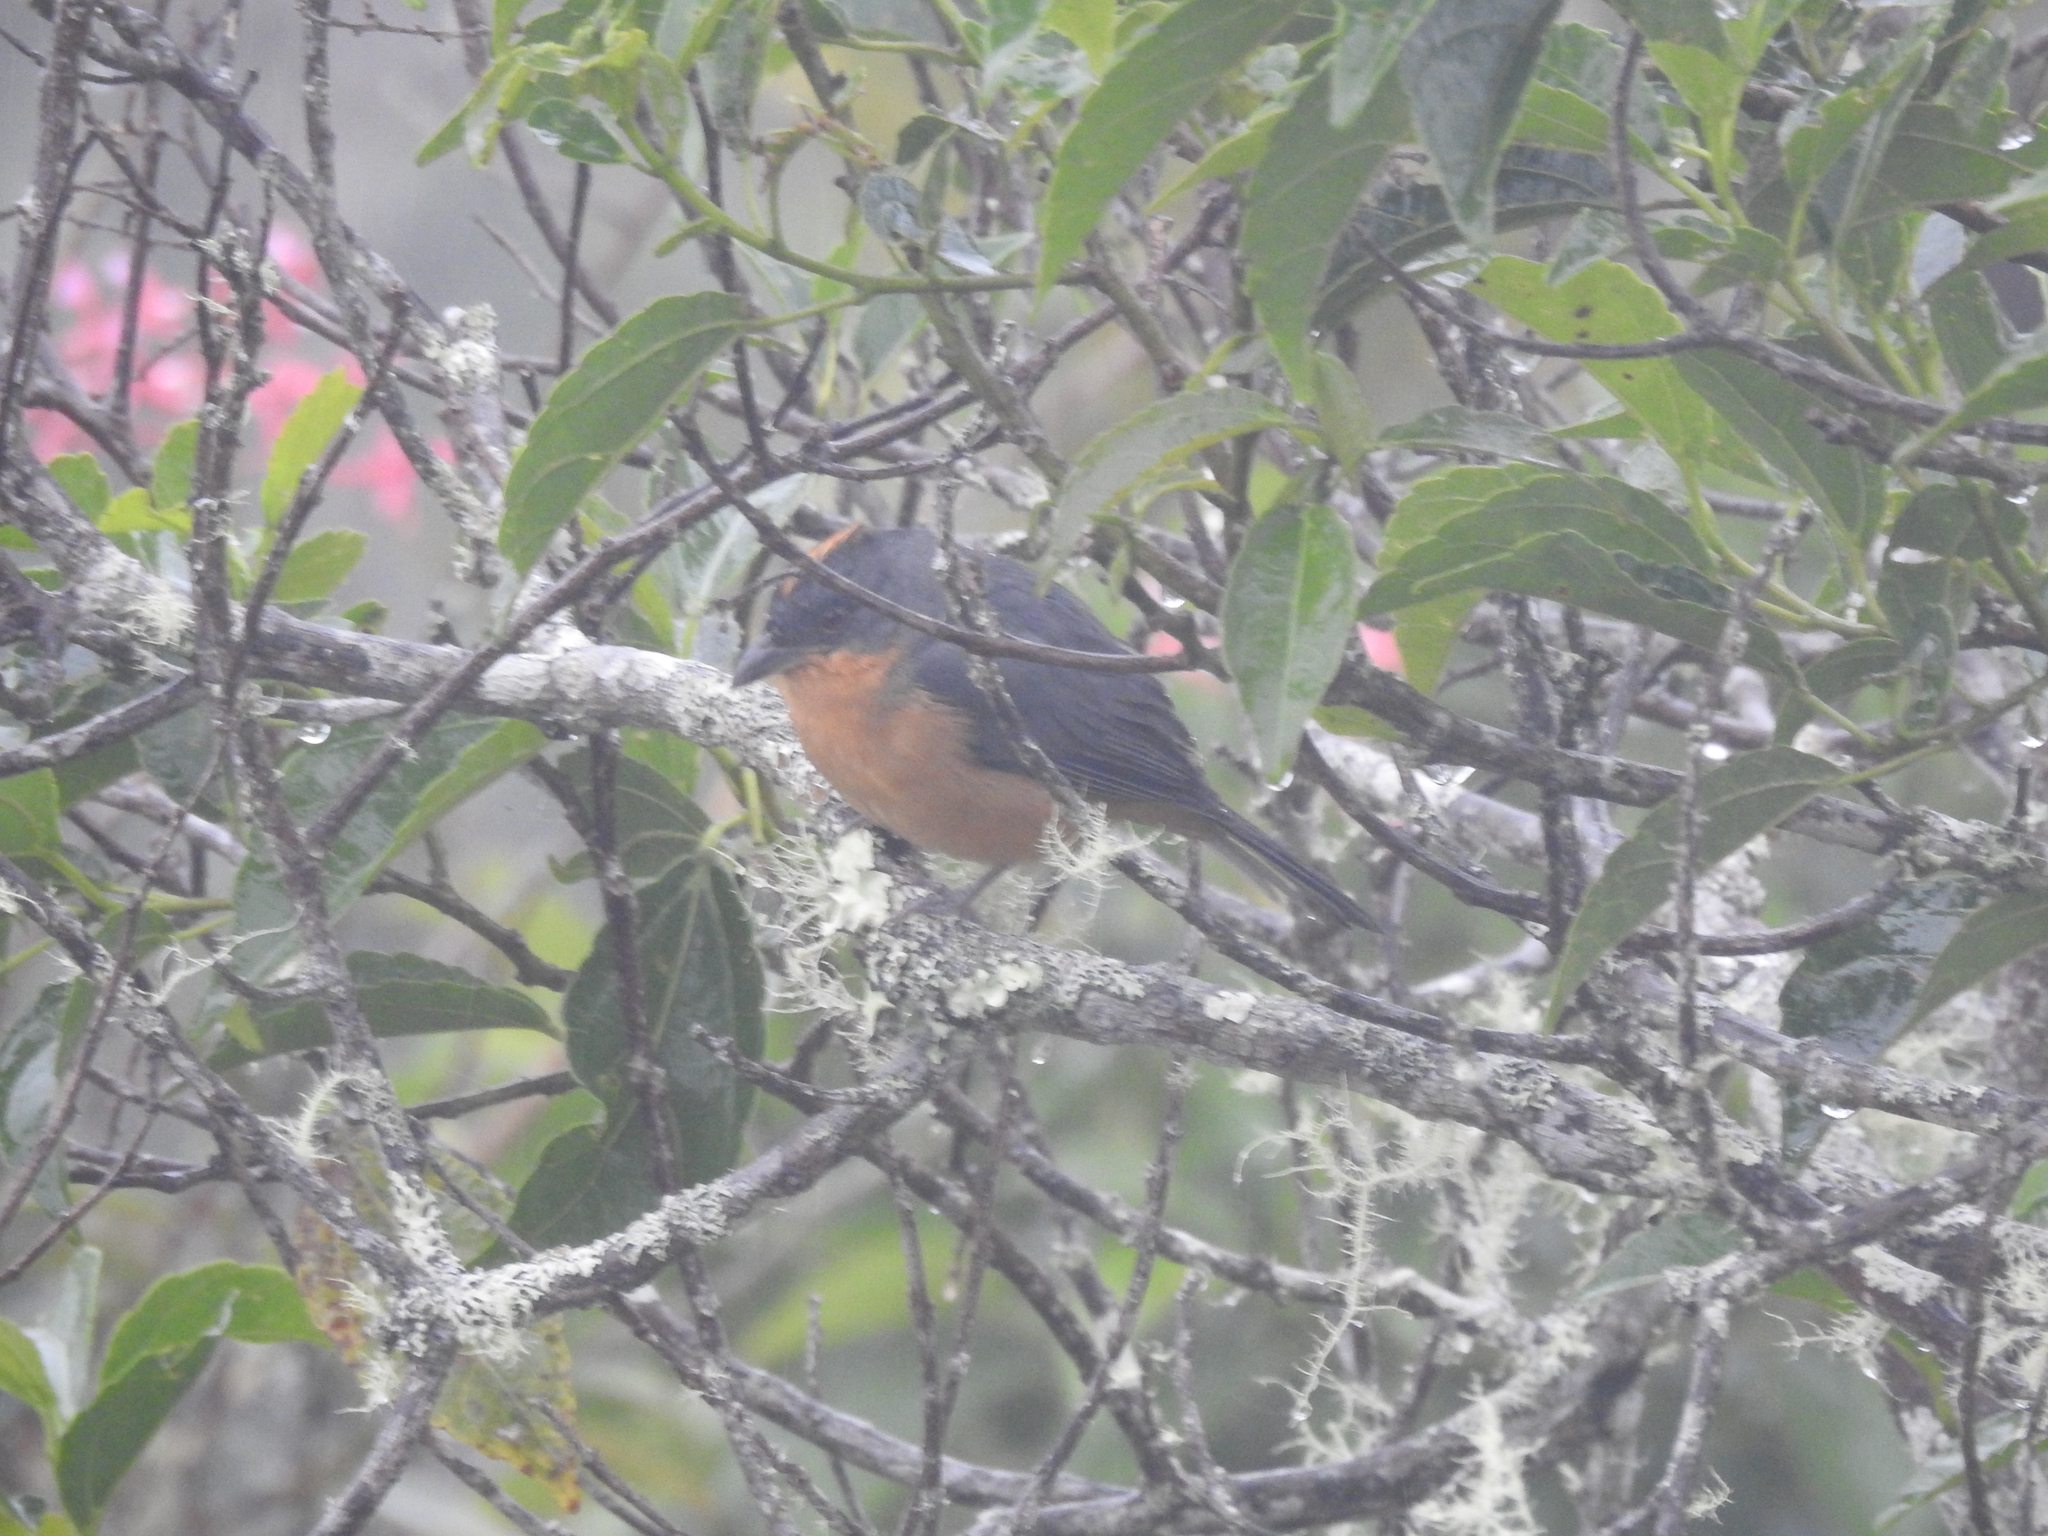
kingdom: Animalia
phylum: Chordata
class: Aves
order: Passeriformes
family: Thraupidae
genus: Creurgops
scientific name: Creurgops verticalis
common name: Rufous-crested tanager
